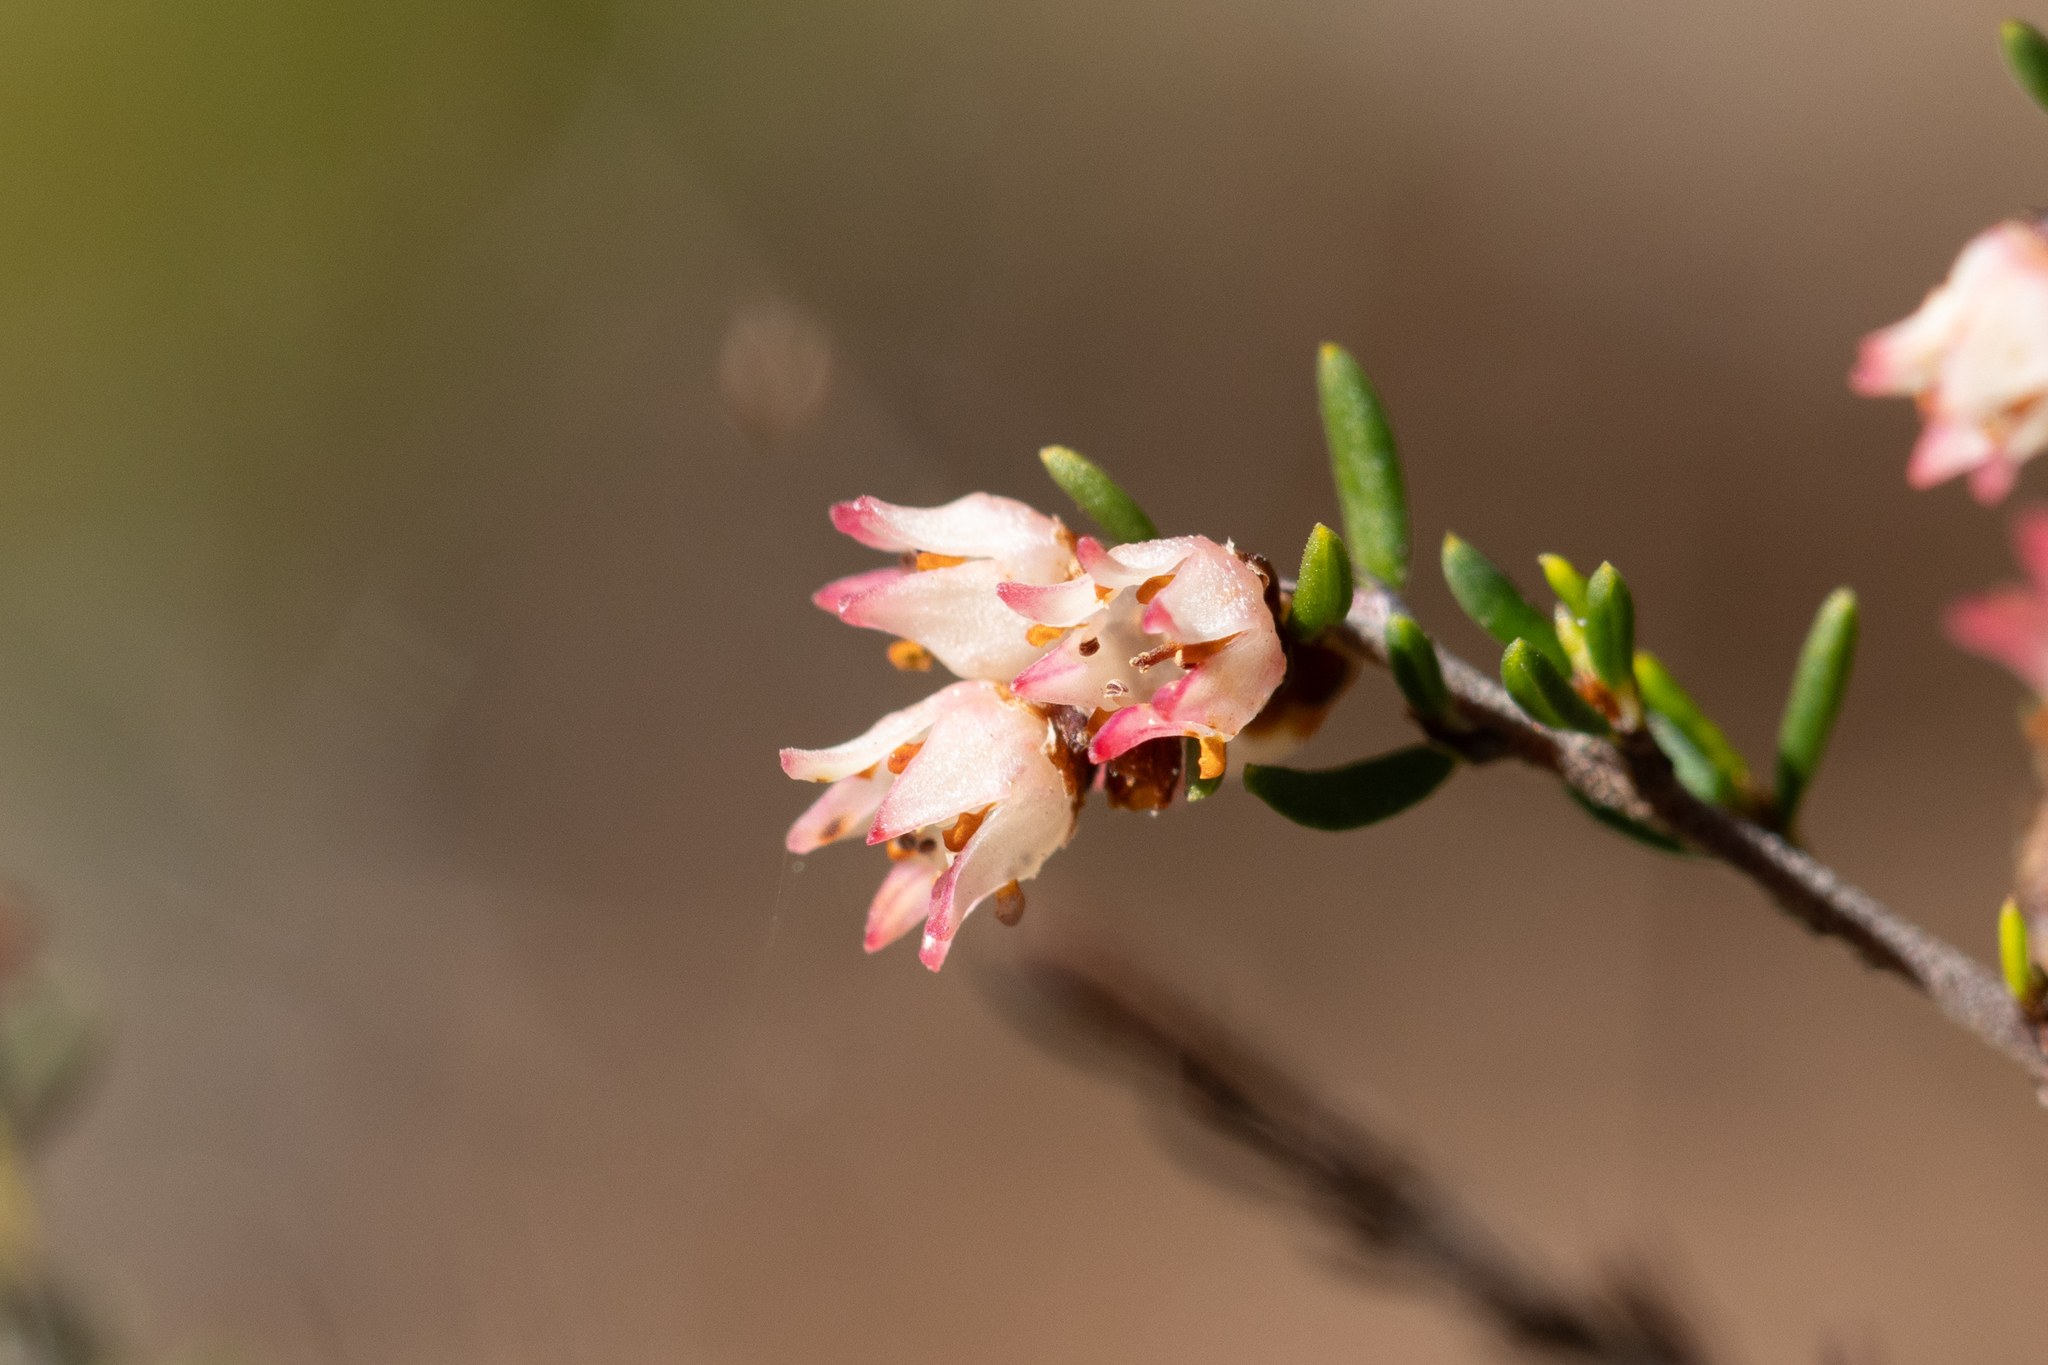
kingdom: Plantae
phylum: Tracheophyta
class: Magnoliopsida
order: Rosales
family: Rhamnaceae
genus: Cryptandra
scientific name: Cryptandra tomentosa
